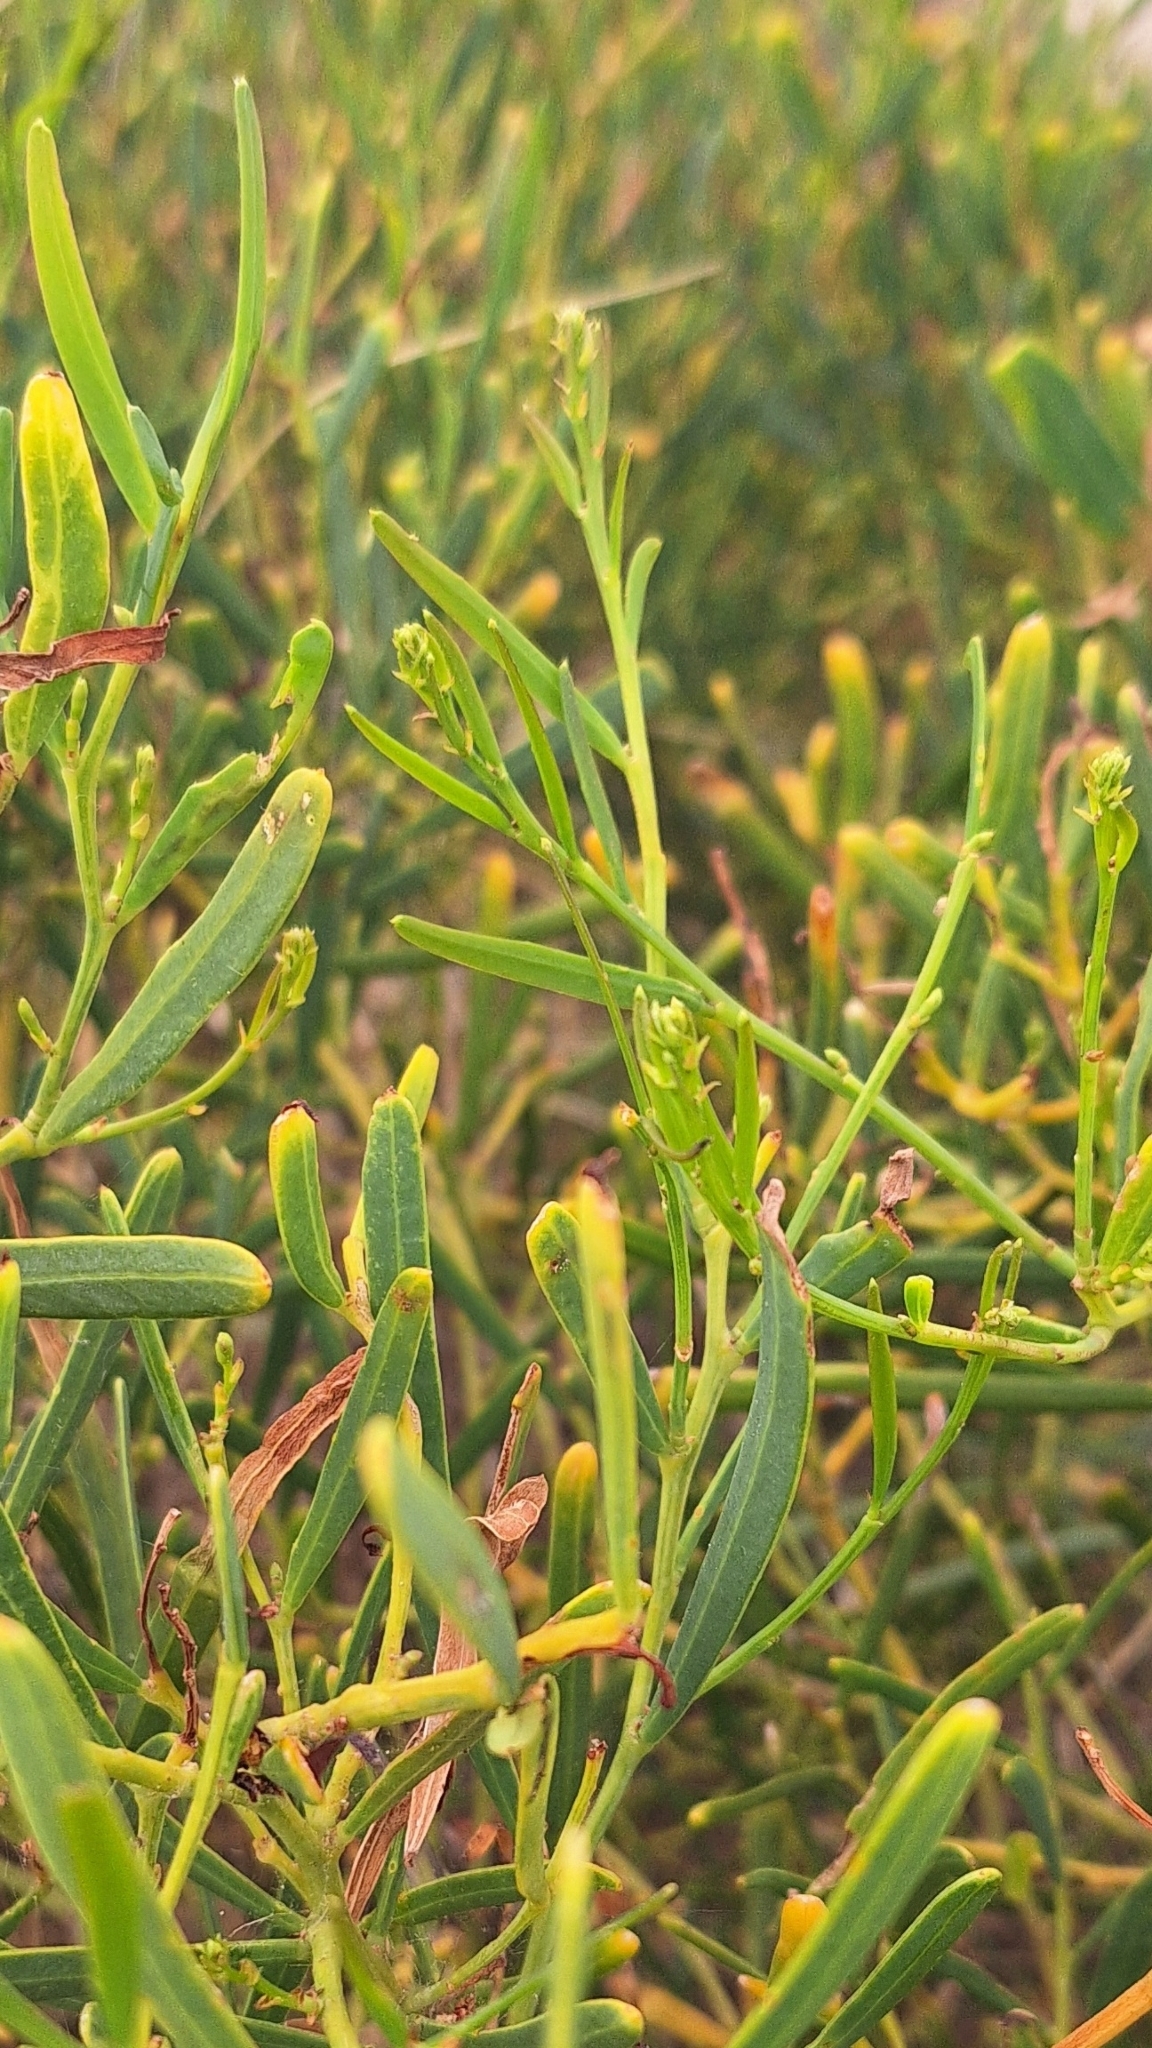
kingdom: Plantae
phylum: Tracheophyta
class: Magnoliopsida
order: Fabales
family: Fabaceae
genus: Acacia
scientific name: Acacia cupularis
